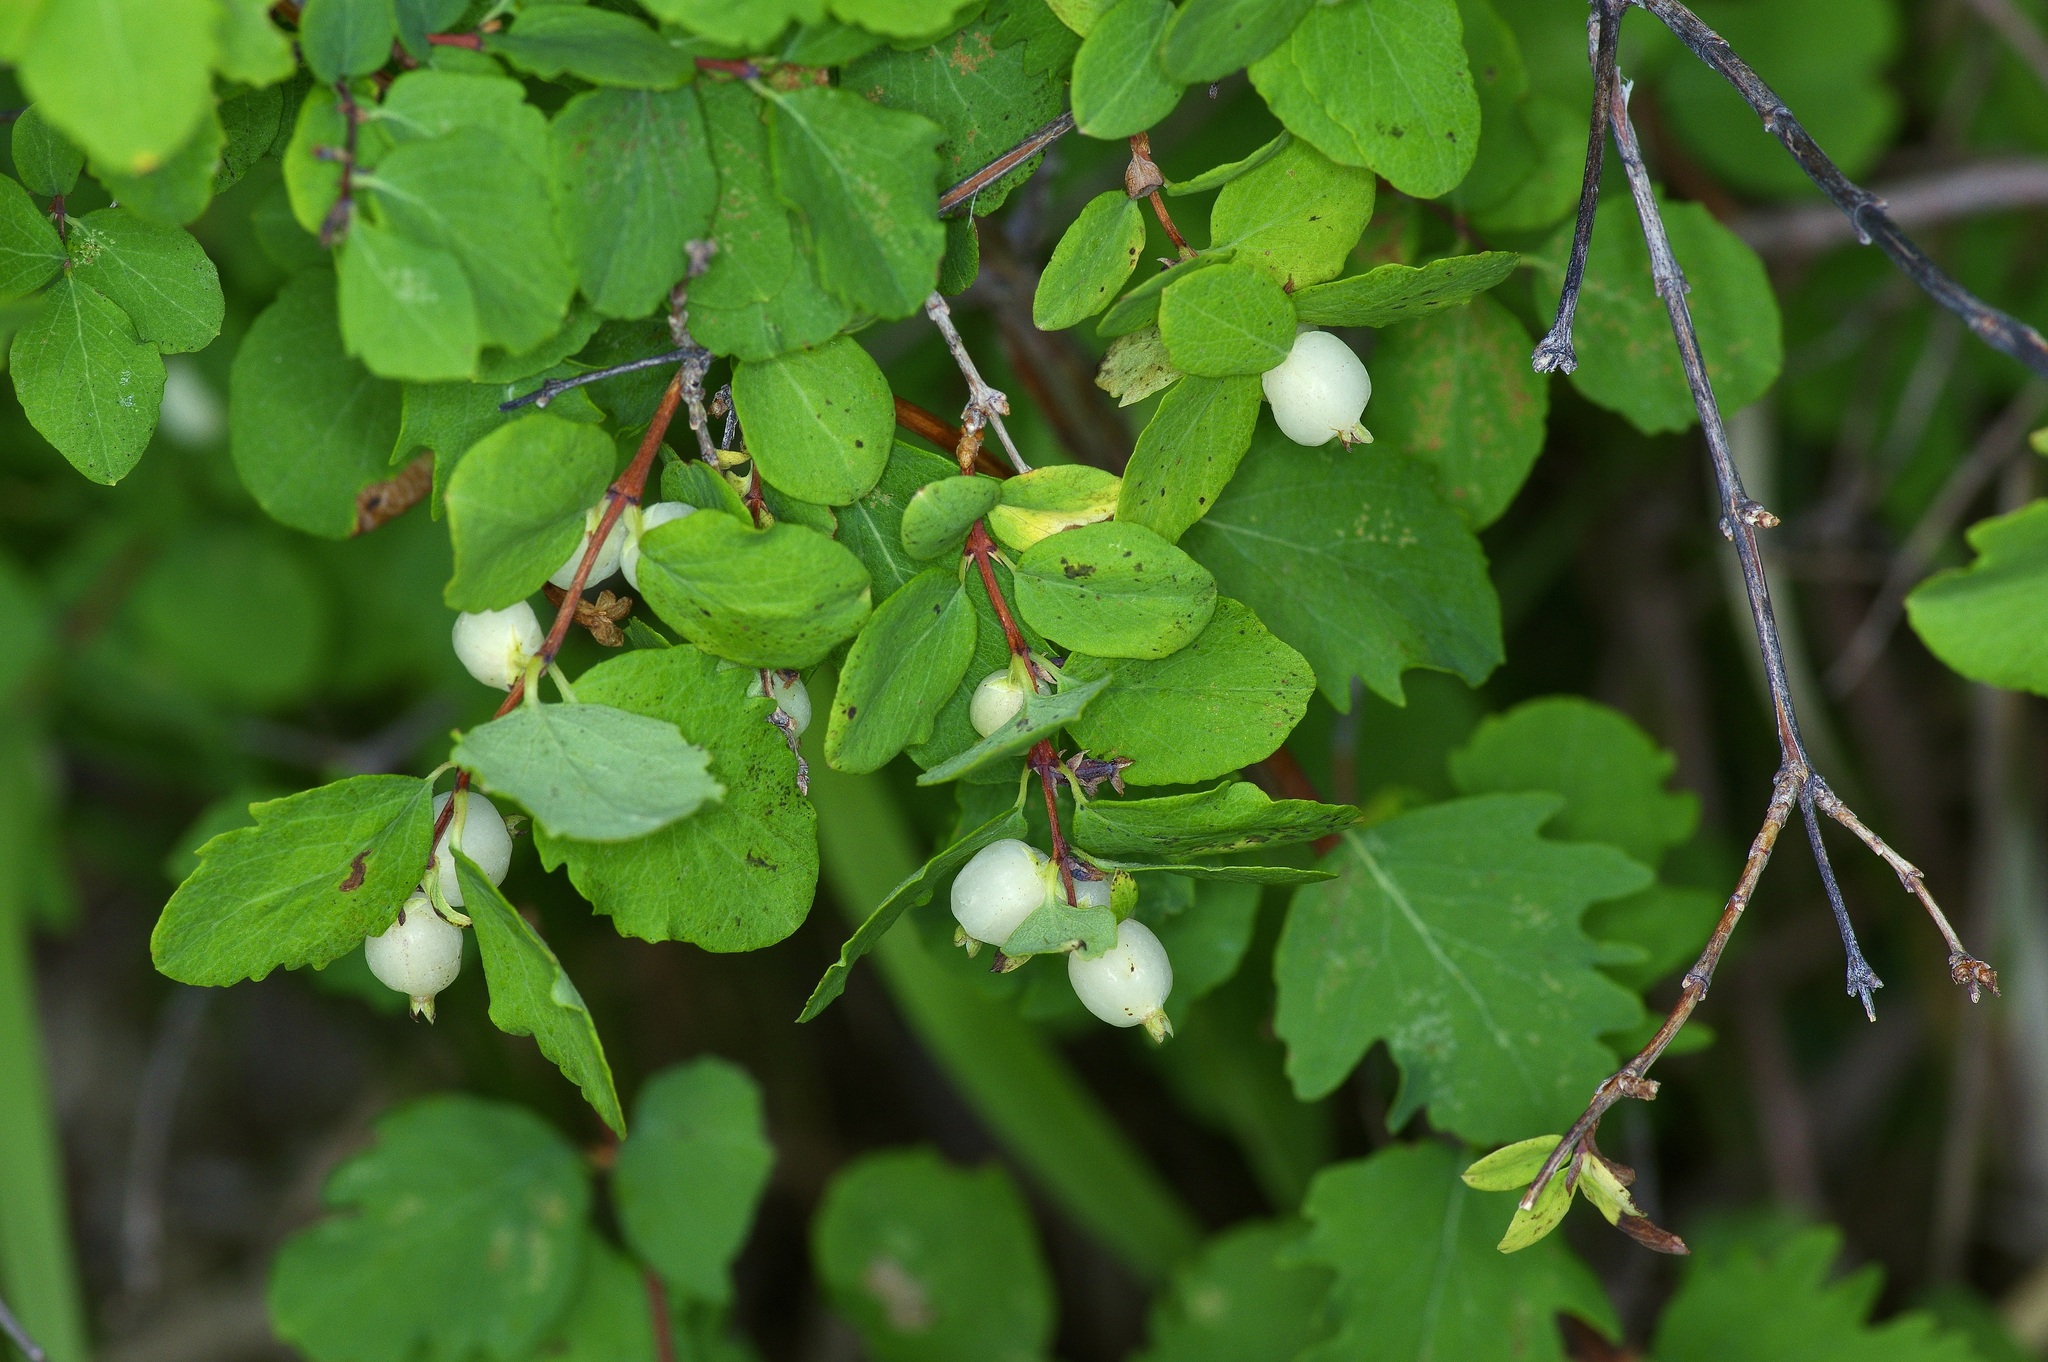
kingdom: Plantae
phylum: Tracheophyta
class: Magnoliopsida
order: Dipsacales
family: Caprifoliaceae
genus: Symphoricarpos
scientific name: Symphoricarpos rotundifolius
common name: Round-leaved snowberry
